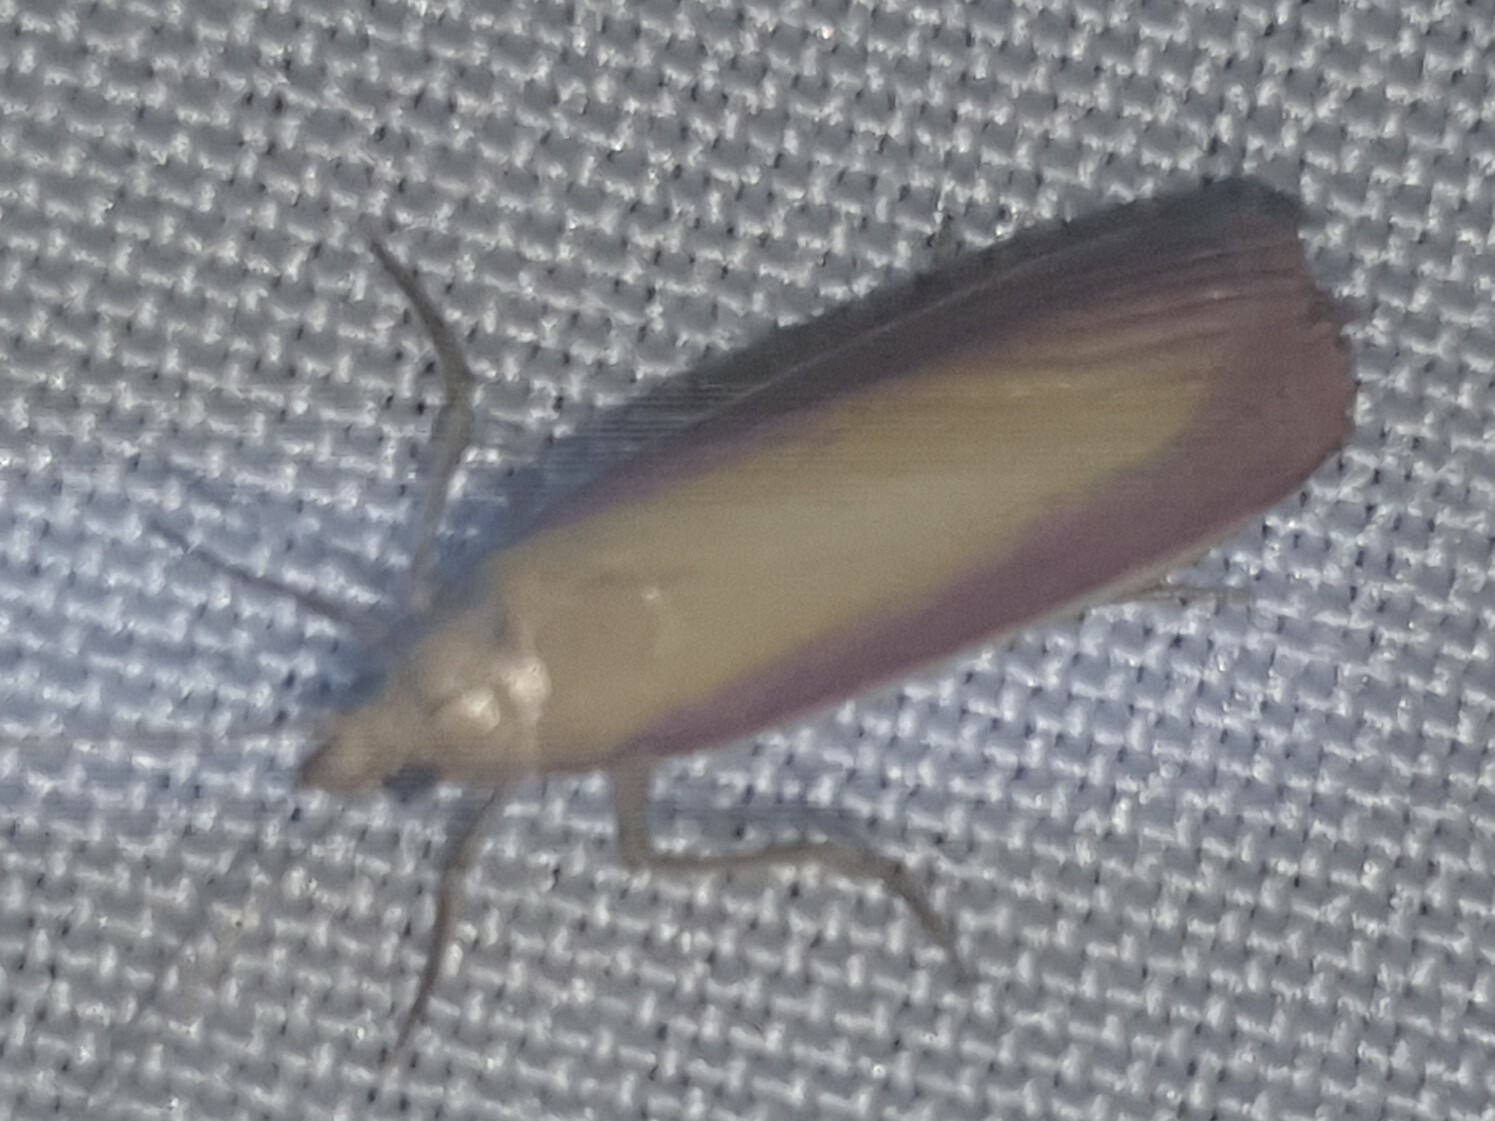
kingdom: Animalia
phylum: Arthropoda
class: Insecta
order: Lepidoptera
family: Pyralidae
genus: Oncocera
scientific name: Oncocera semirubella
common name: Rosy-striped knot-horn
